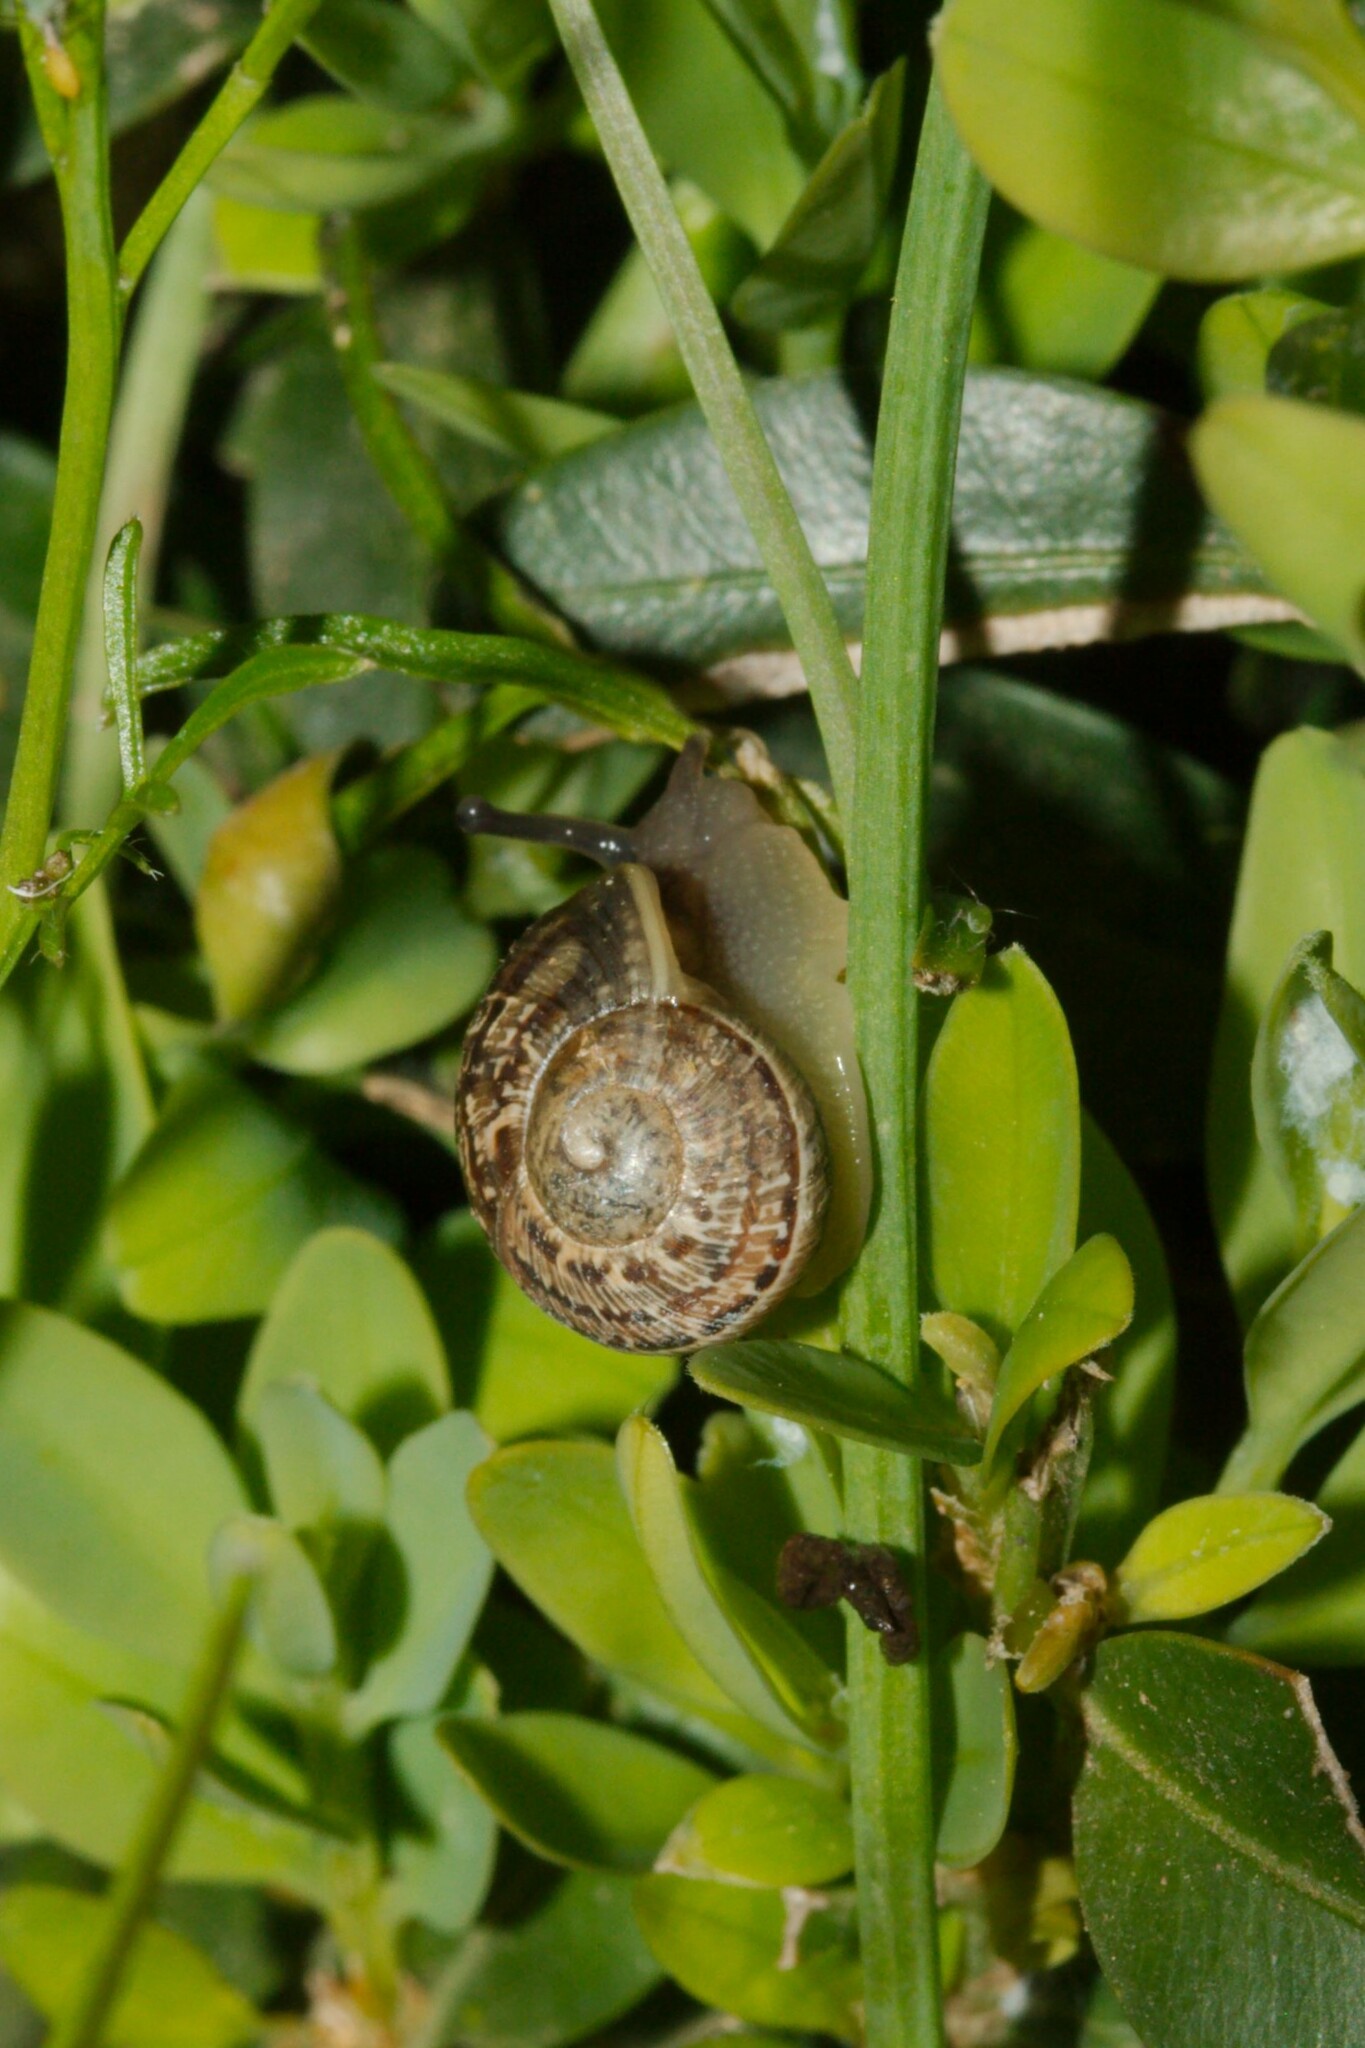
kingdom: Animalia
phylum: Mollusca
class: Gastropoda
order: Stylommatophora
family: Helicidae
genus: Cornu
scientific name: Cornu aspersum
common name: Brown garden snail
